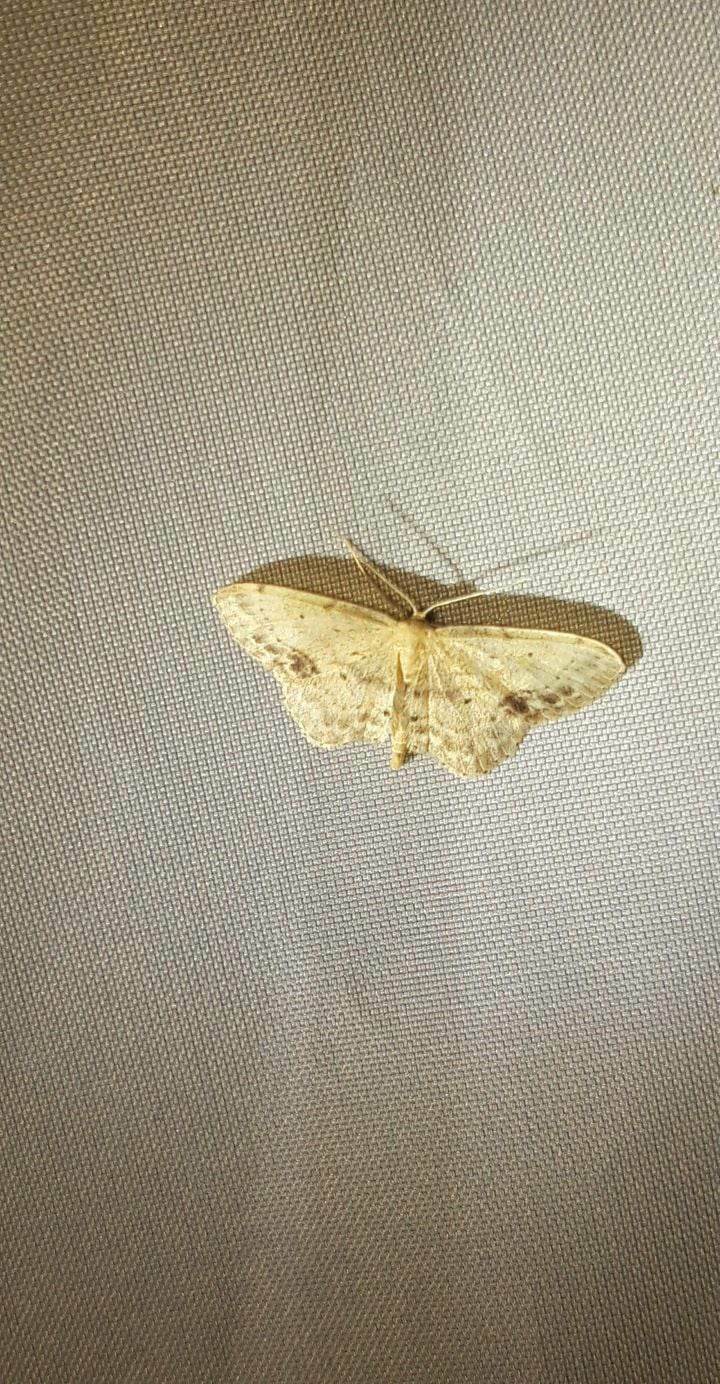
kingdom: Animalia
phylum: Arthropoda
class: Insecta
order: Lepidoptera
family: Geometridae
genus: Idaea
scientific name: Idaea dimidiata
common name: Single-dotted wave
